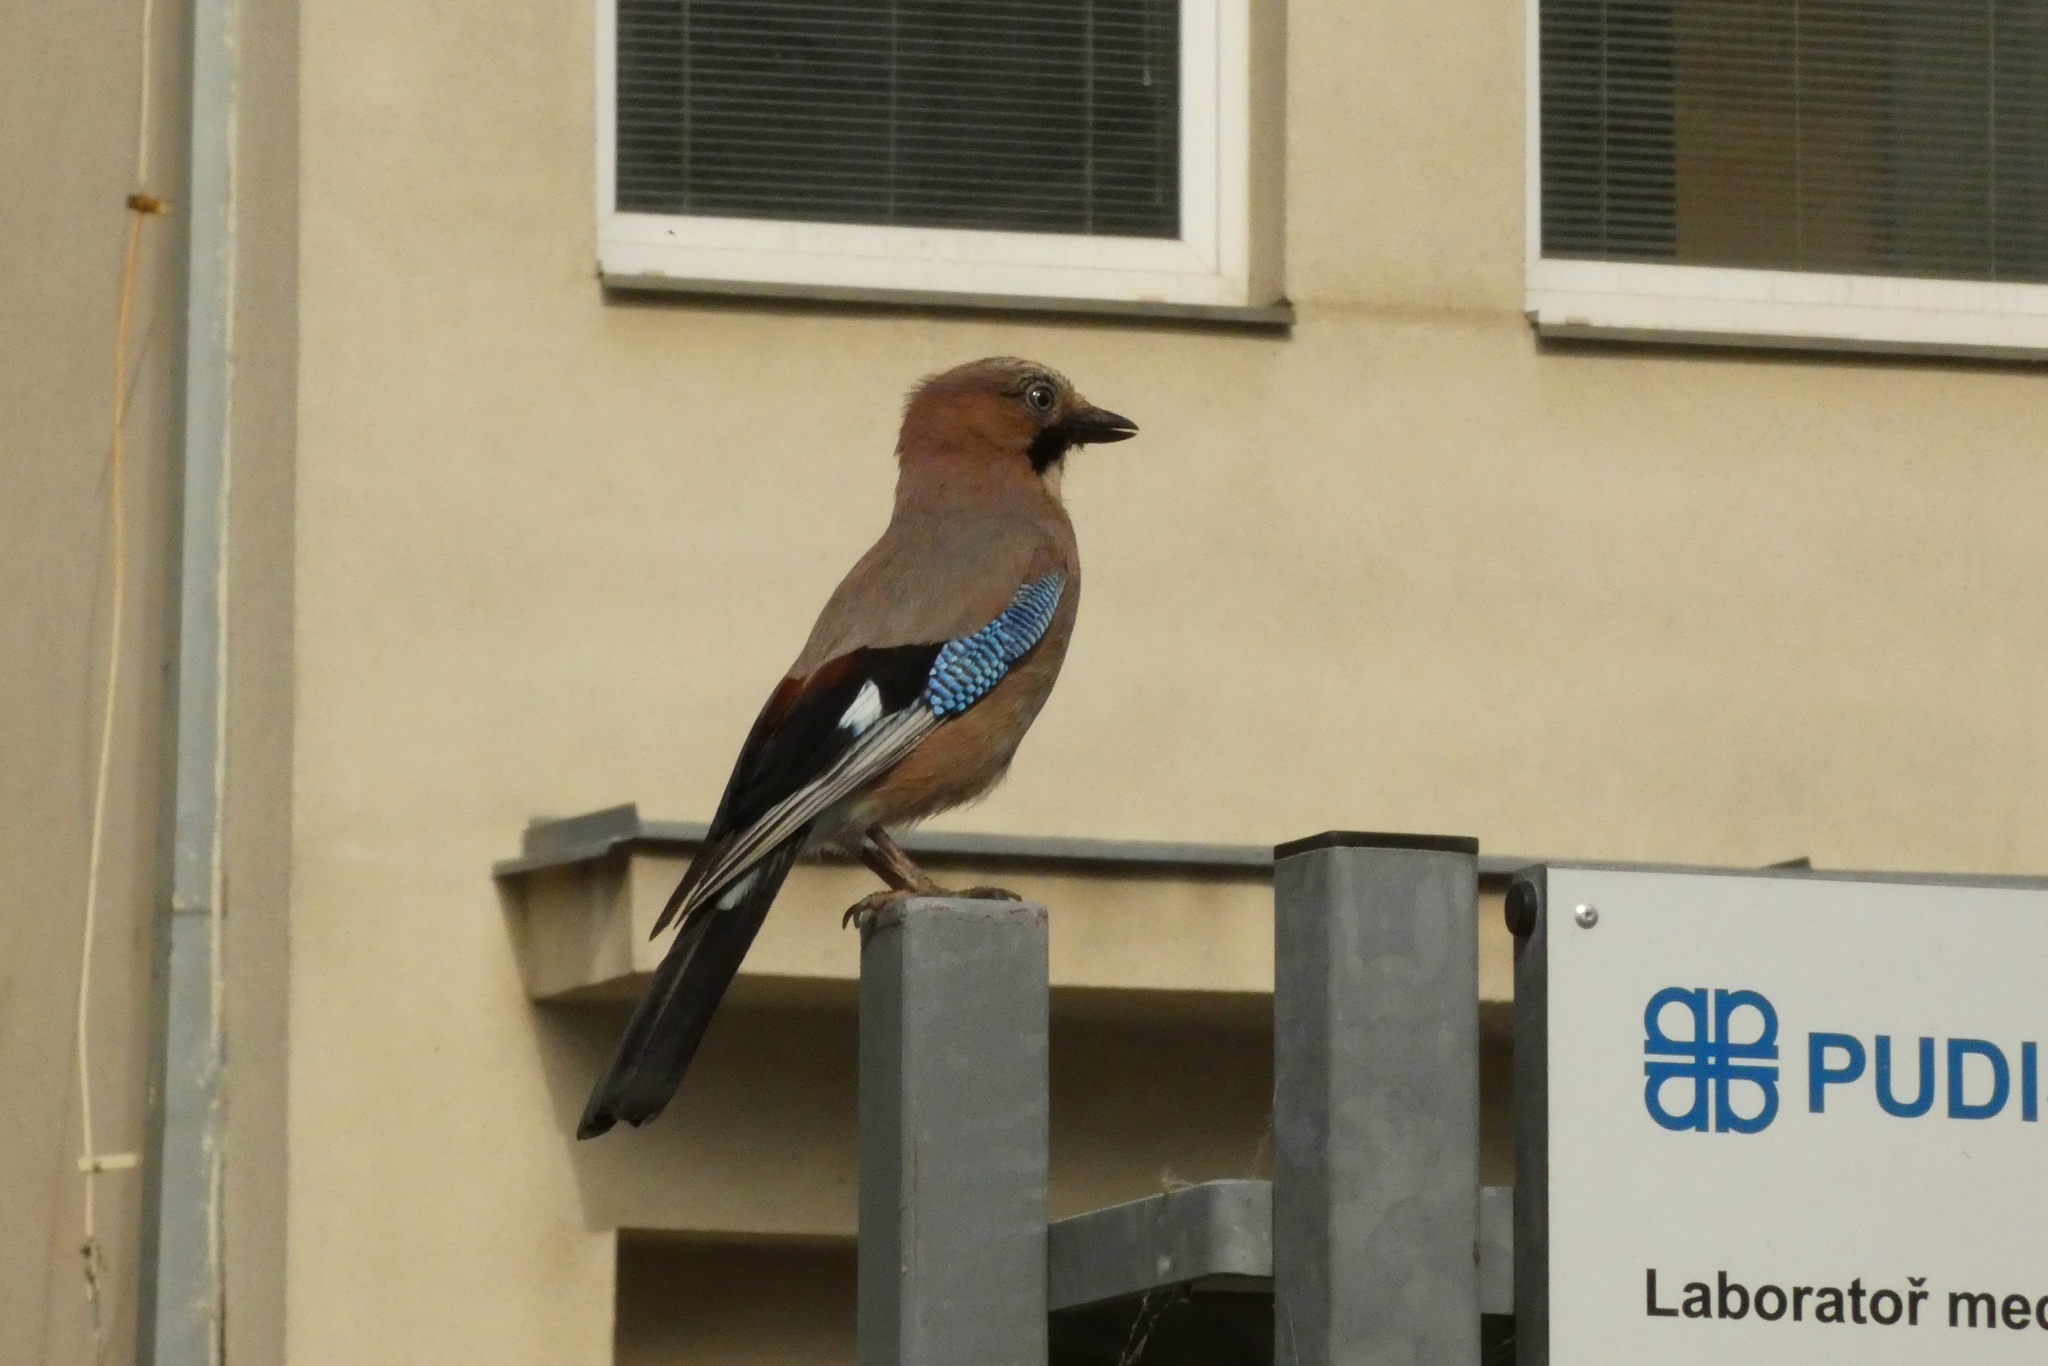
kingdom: Animalia
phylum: Chordata
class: Aves
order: Passeriformes
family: Corvidae
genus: Garrulus
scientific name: Garrulus glandarius
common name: Eurasian jay
